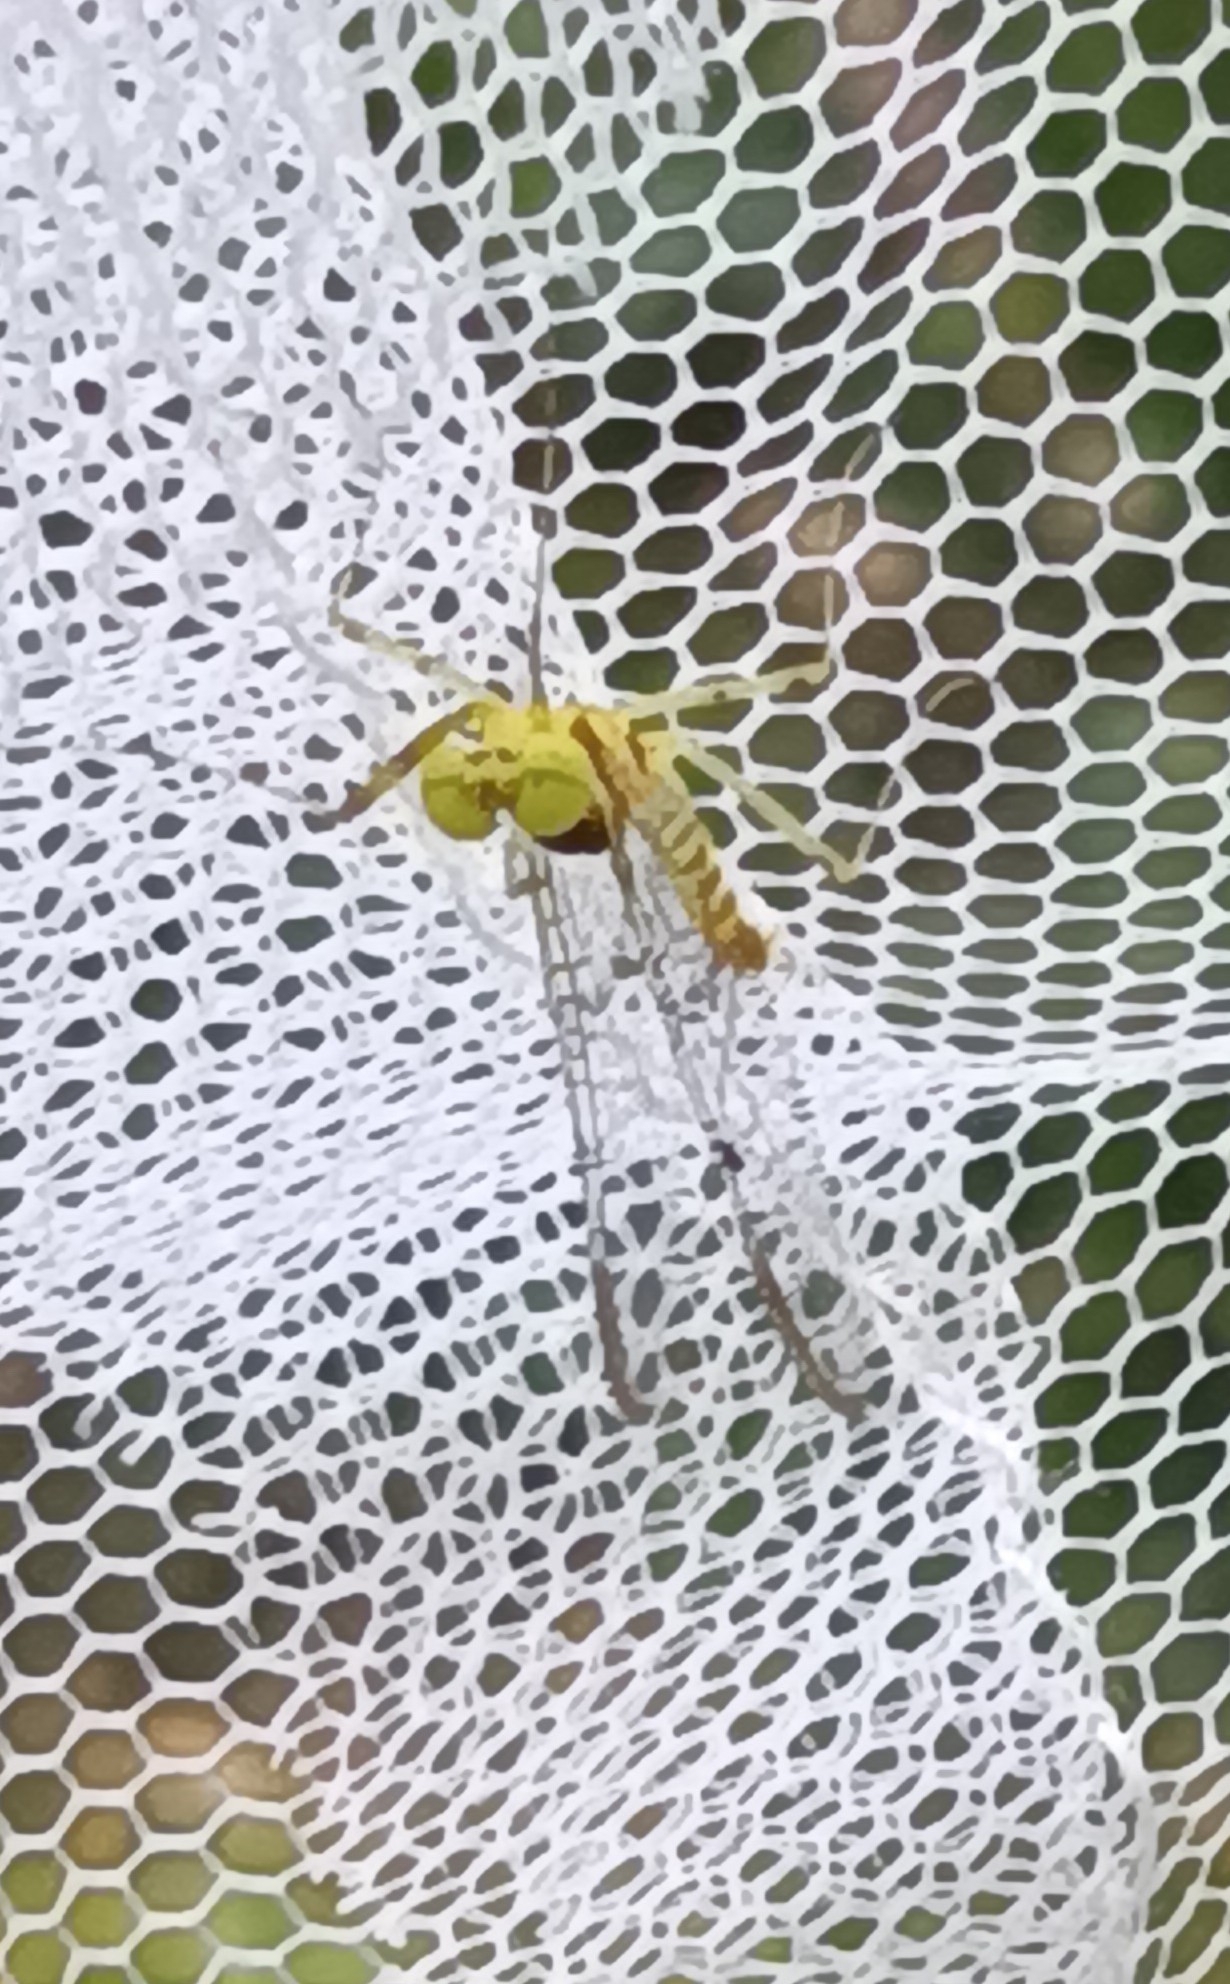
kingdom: Animalia
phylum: Arthropoda
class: Insecta
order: Ephemeroptera
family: Heptageniidae
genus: Stenacron
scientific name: Stenacron interpunctatum
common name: Orange cahill
